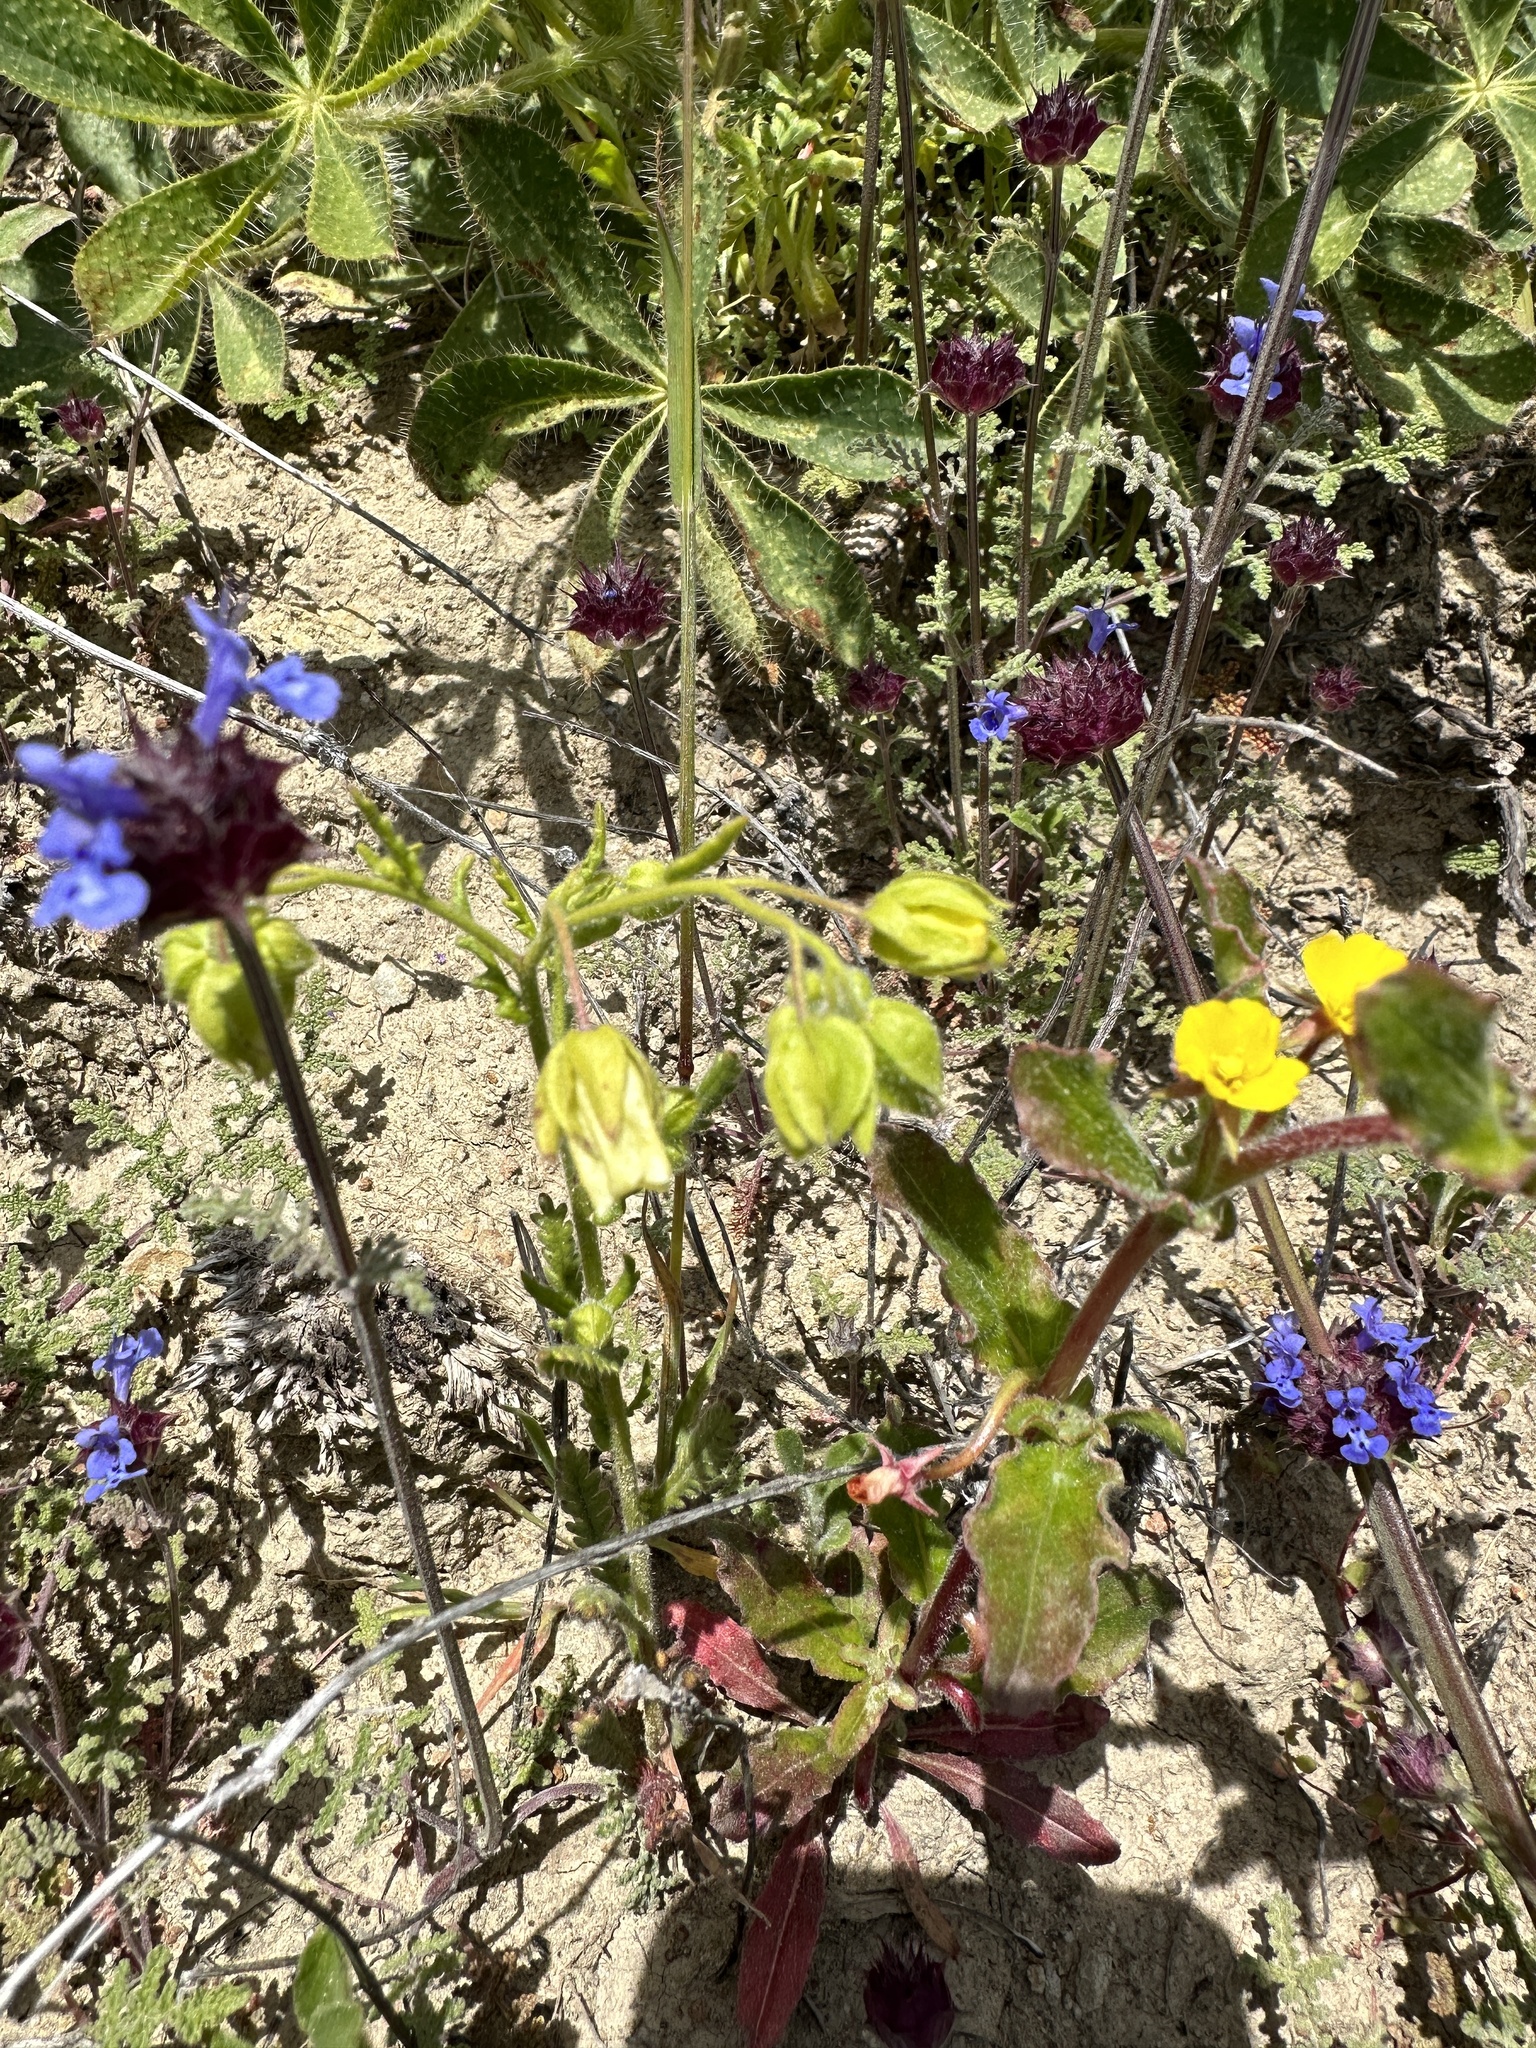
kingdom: Plantae
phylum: Tracheophyta
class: Magnoliopsida
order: Boraginales
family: Hydrophyllaceae
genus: Emmenanthe
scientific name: Emmenanthe penduliflora
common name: Whispering-bells
